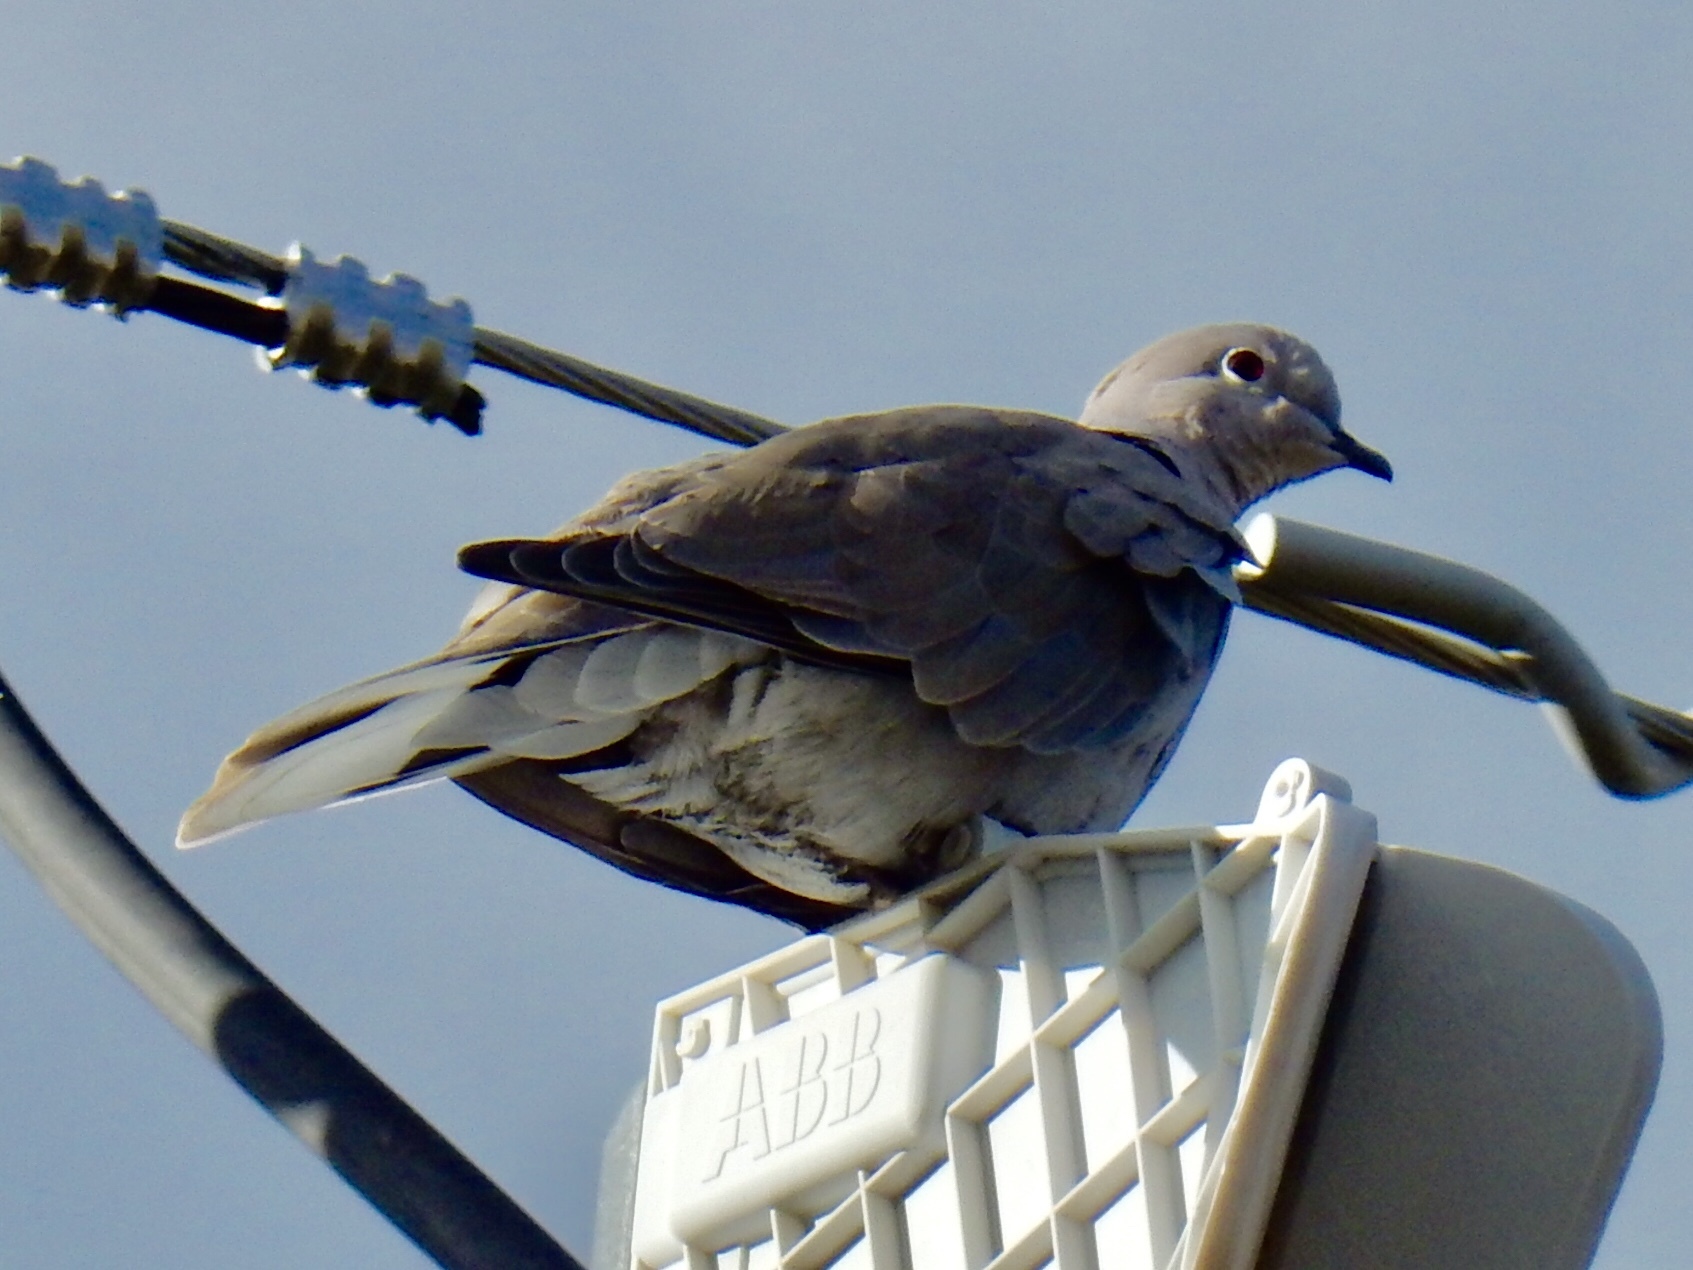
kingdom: Animalia
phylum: Chordata
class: Aves
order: Columbiformes
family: Columbidae
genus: Streptopelia
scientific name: Streptopelia decaocto
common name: Eurasian collared dove
